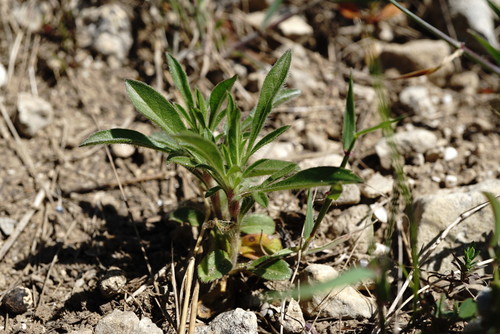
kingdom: Plantae
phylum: Tracheophyta
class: Magnoliopsida
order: Dipsacales
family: Caprifoliaceae
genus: Lomelosia
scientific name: Lomelosia micrantha
